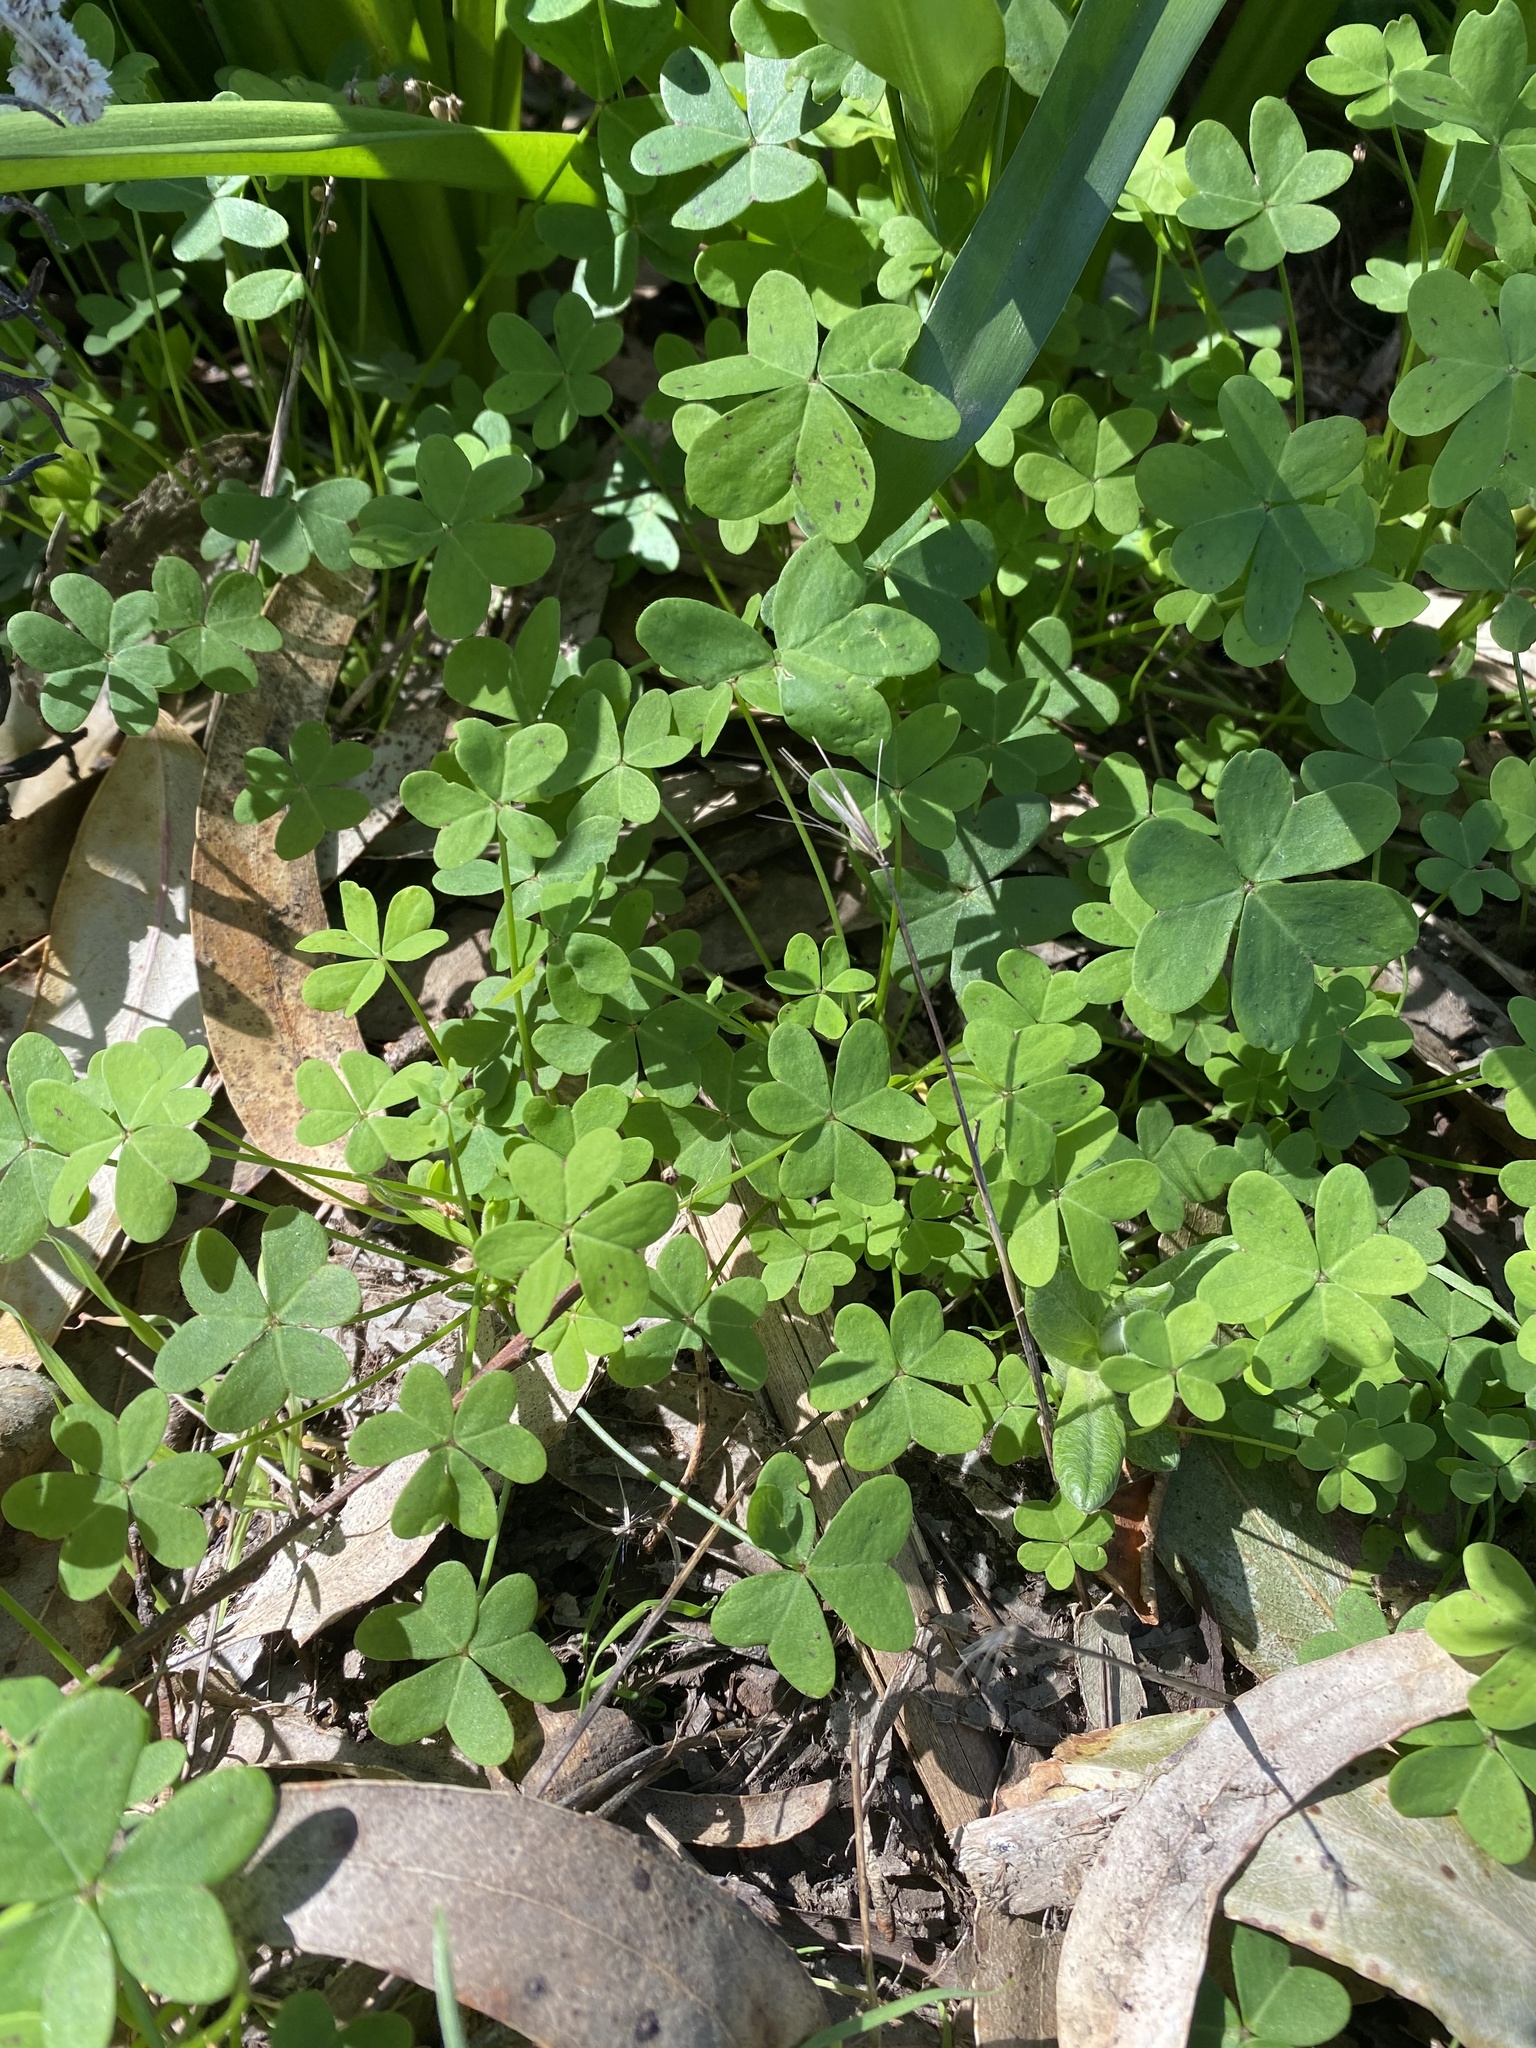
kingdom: Plantae
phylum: Tracheophyta
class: Magnoliopsida
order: Oxalidales
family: Oxalidaceae
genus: Oxalis
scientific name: Oxalis pes-caprae
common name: Bermuda-buttercup
